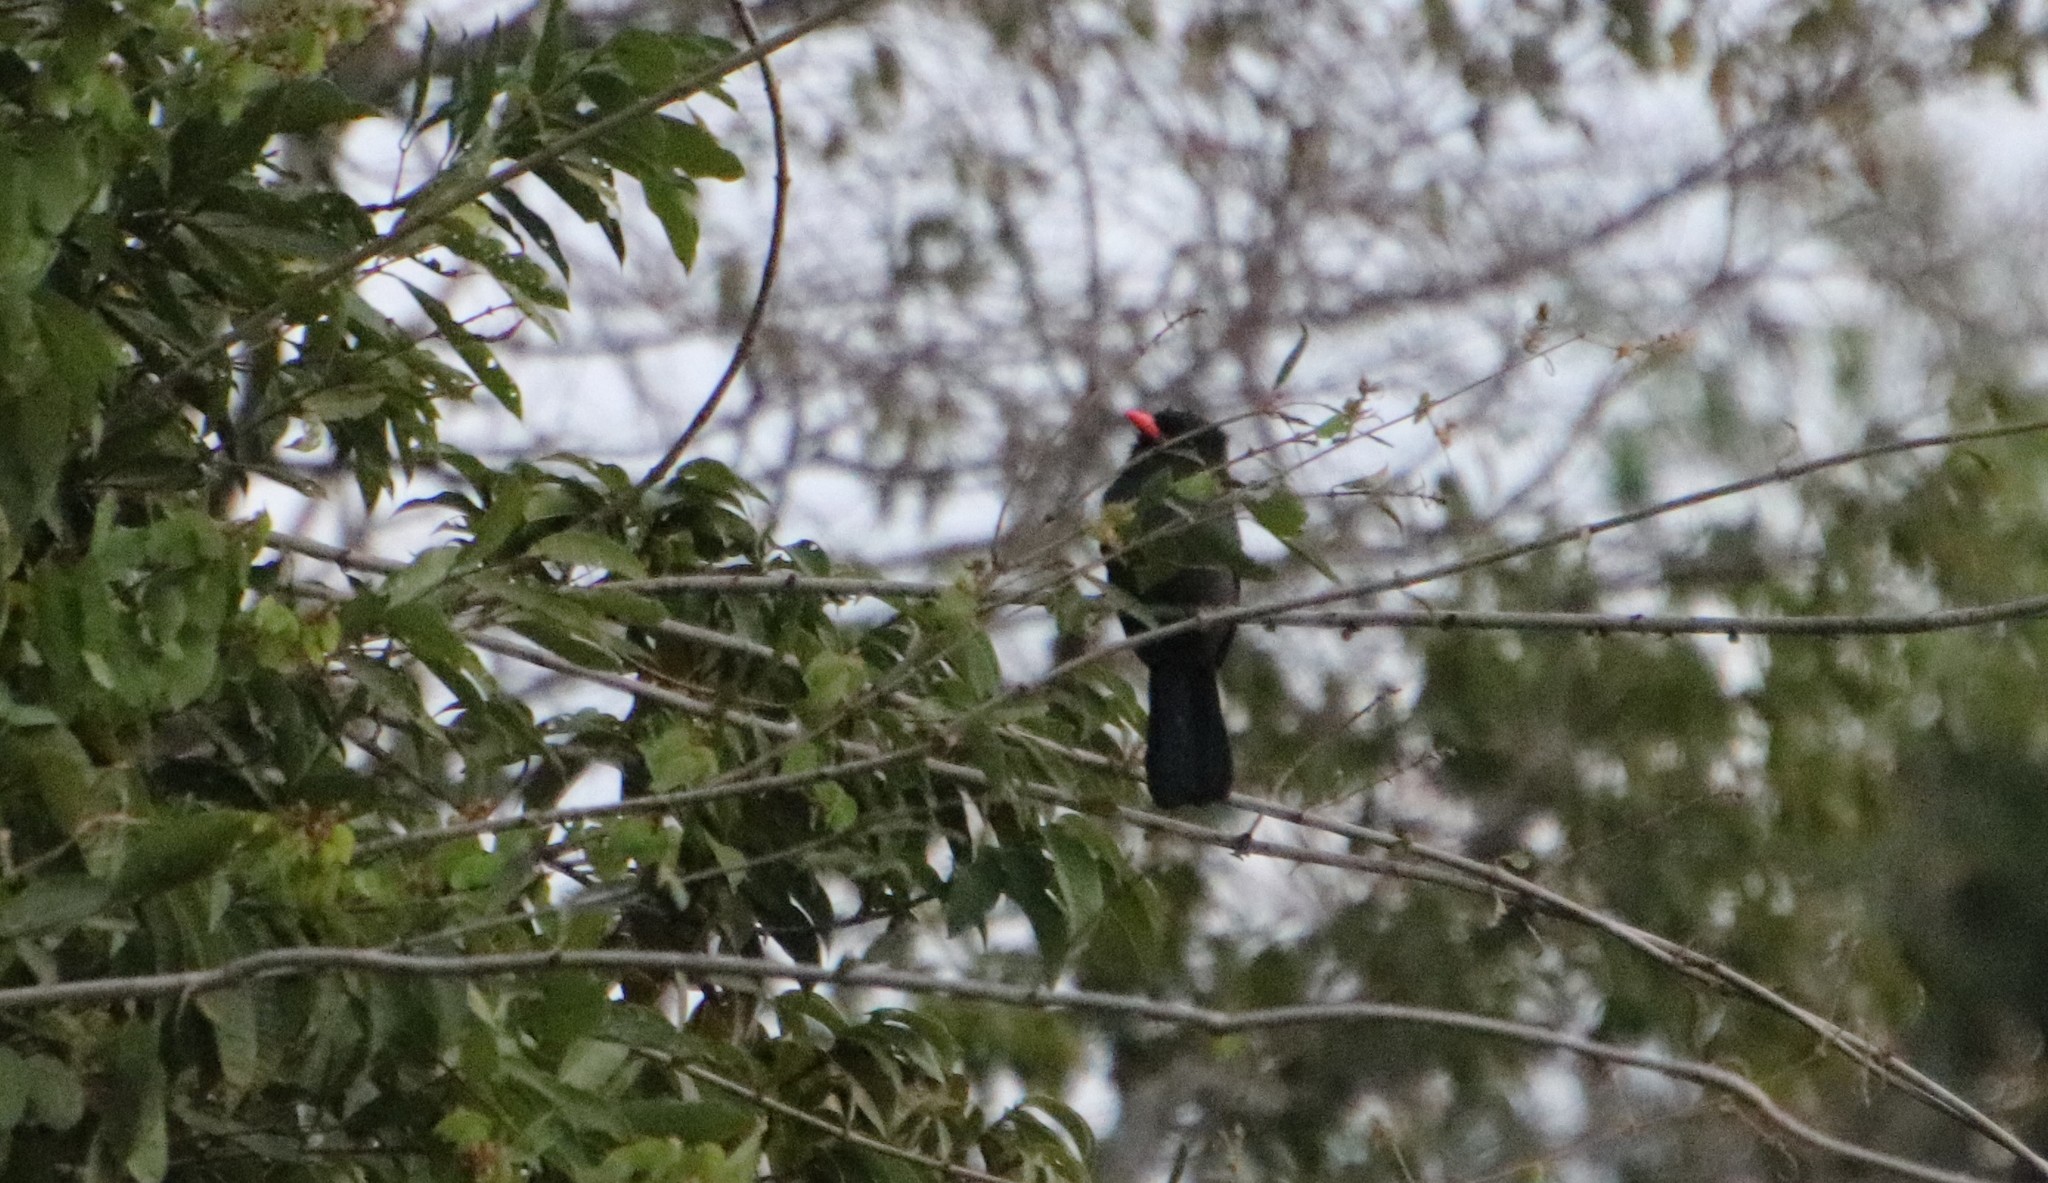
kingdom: Animalia
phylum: Chordata
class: Aves
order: Piciformes
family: Bucconidae
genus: Monasa
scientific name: Monasa nigrifrons
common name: Black-fronted nunbird
